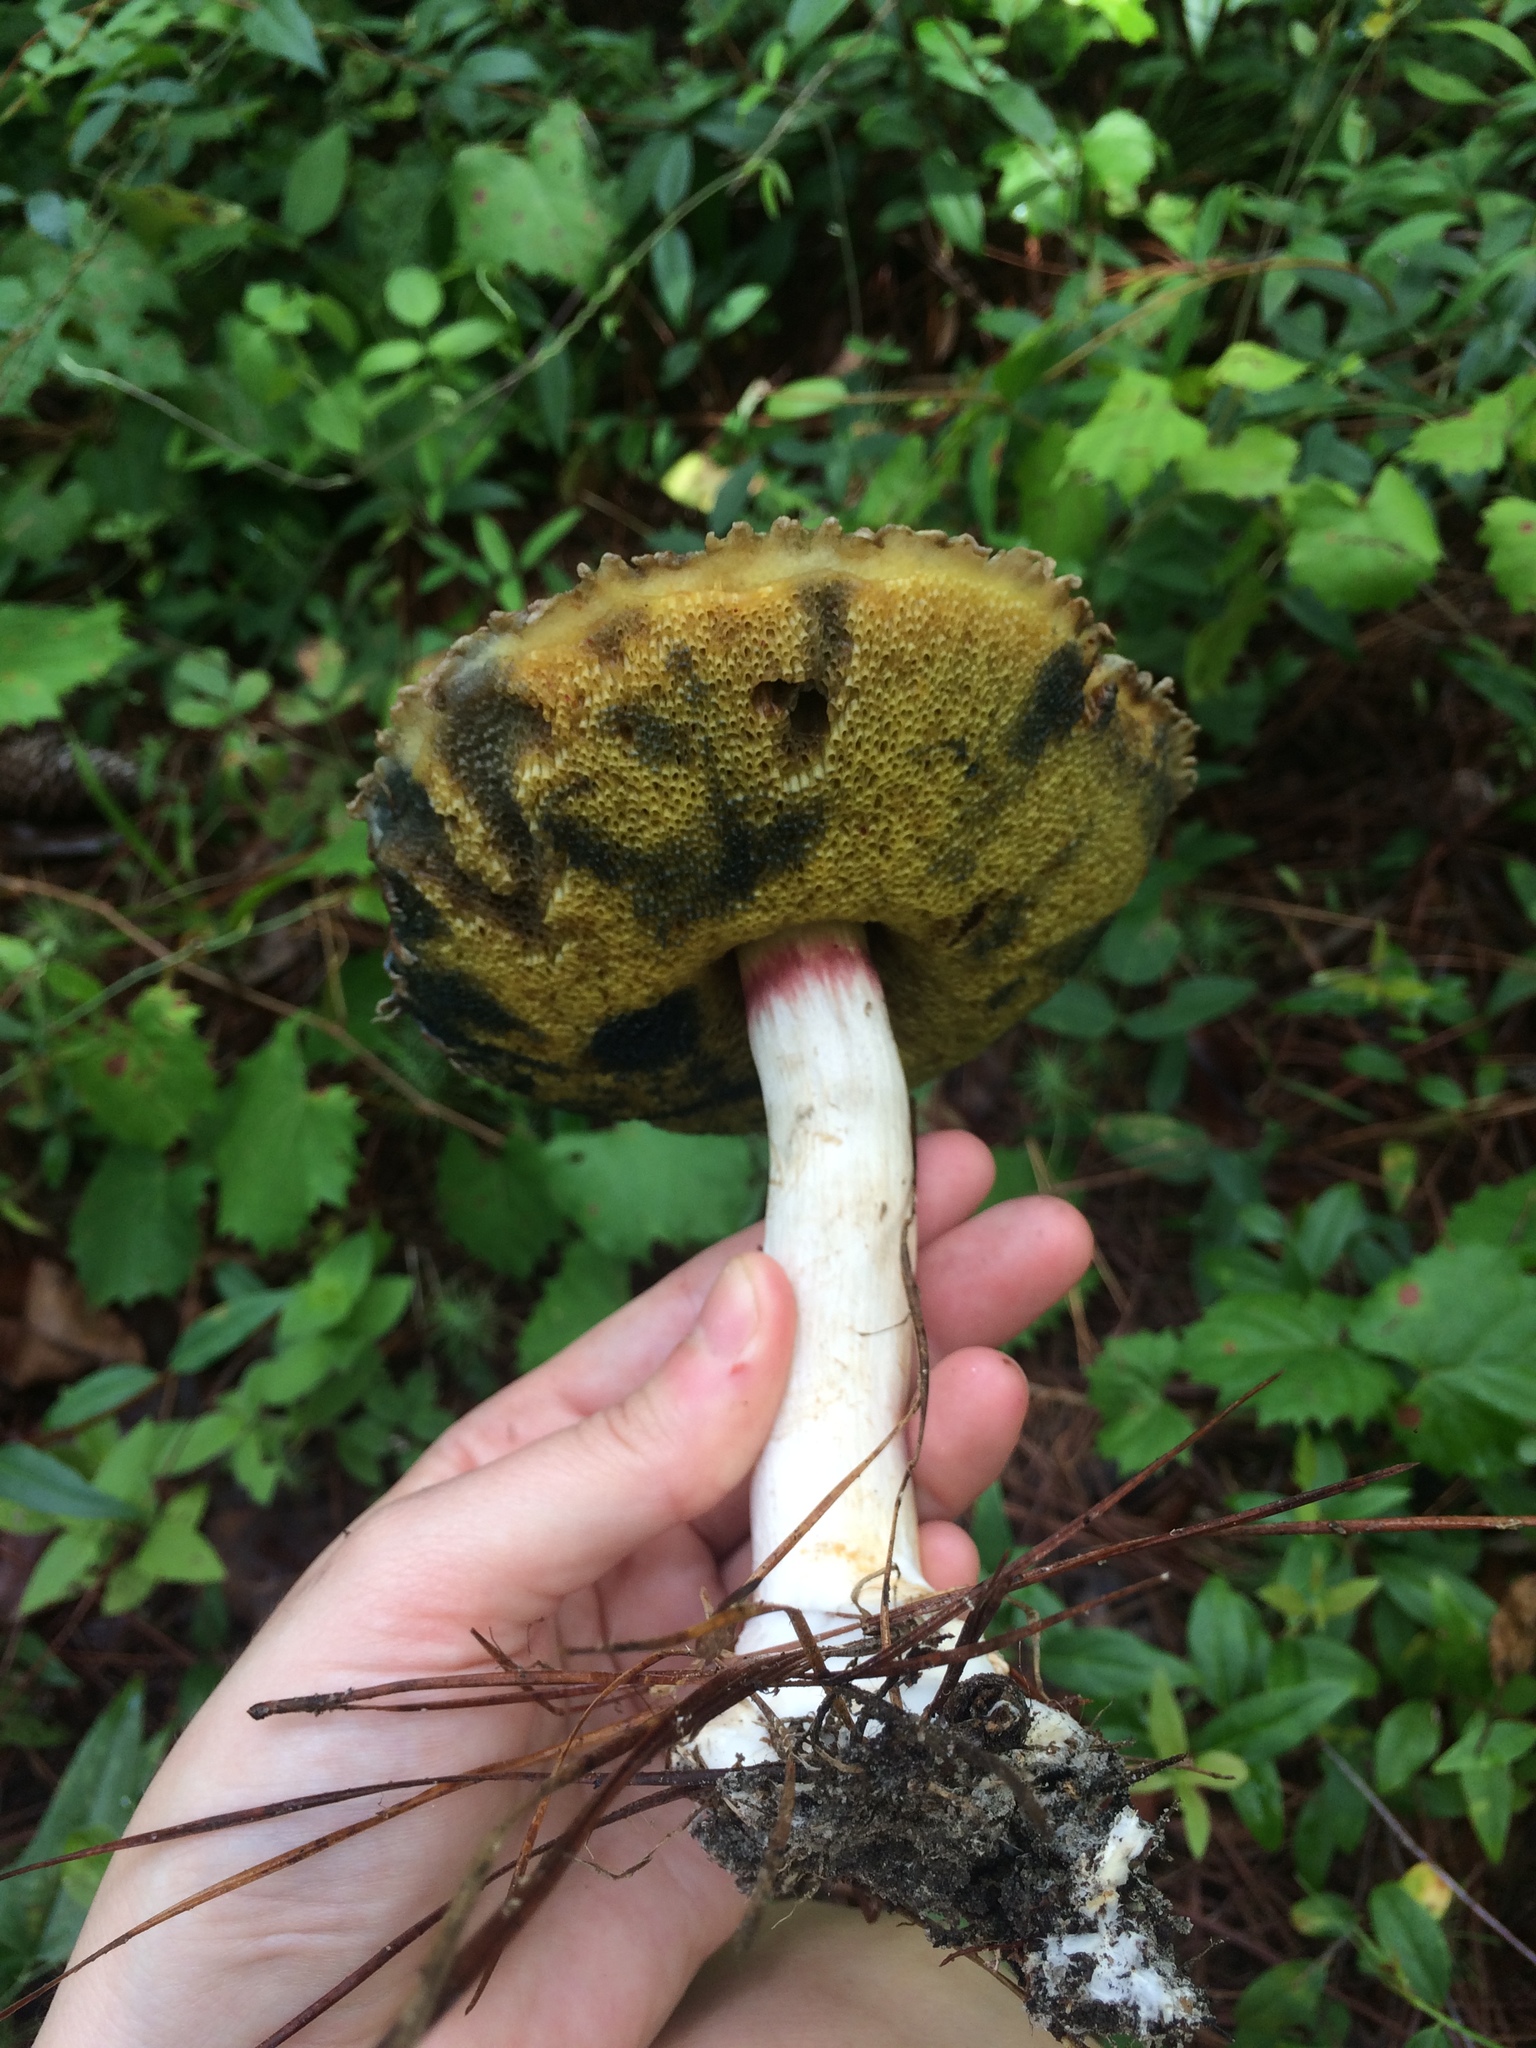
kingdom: Fungi
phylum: Basidiomycota
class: Agaricomycetes
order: Boletales
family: Boletaceae
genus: Boletellus
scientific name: Boletellus ananas
